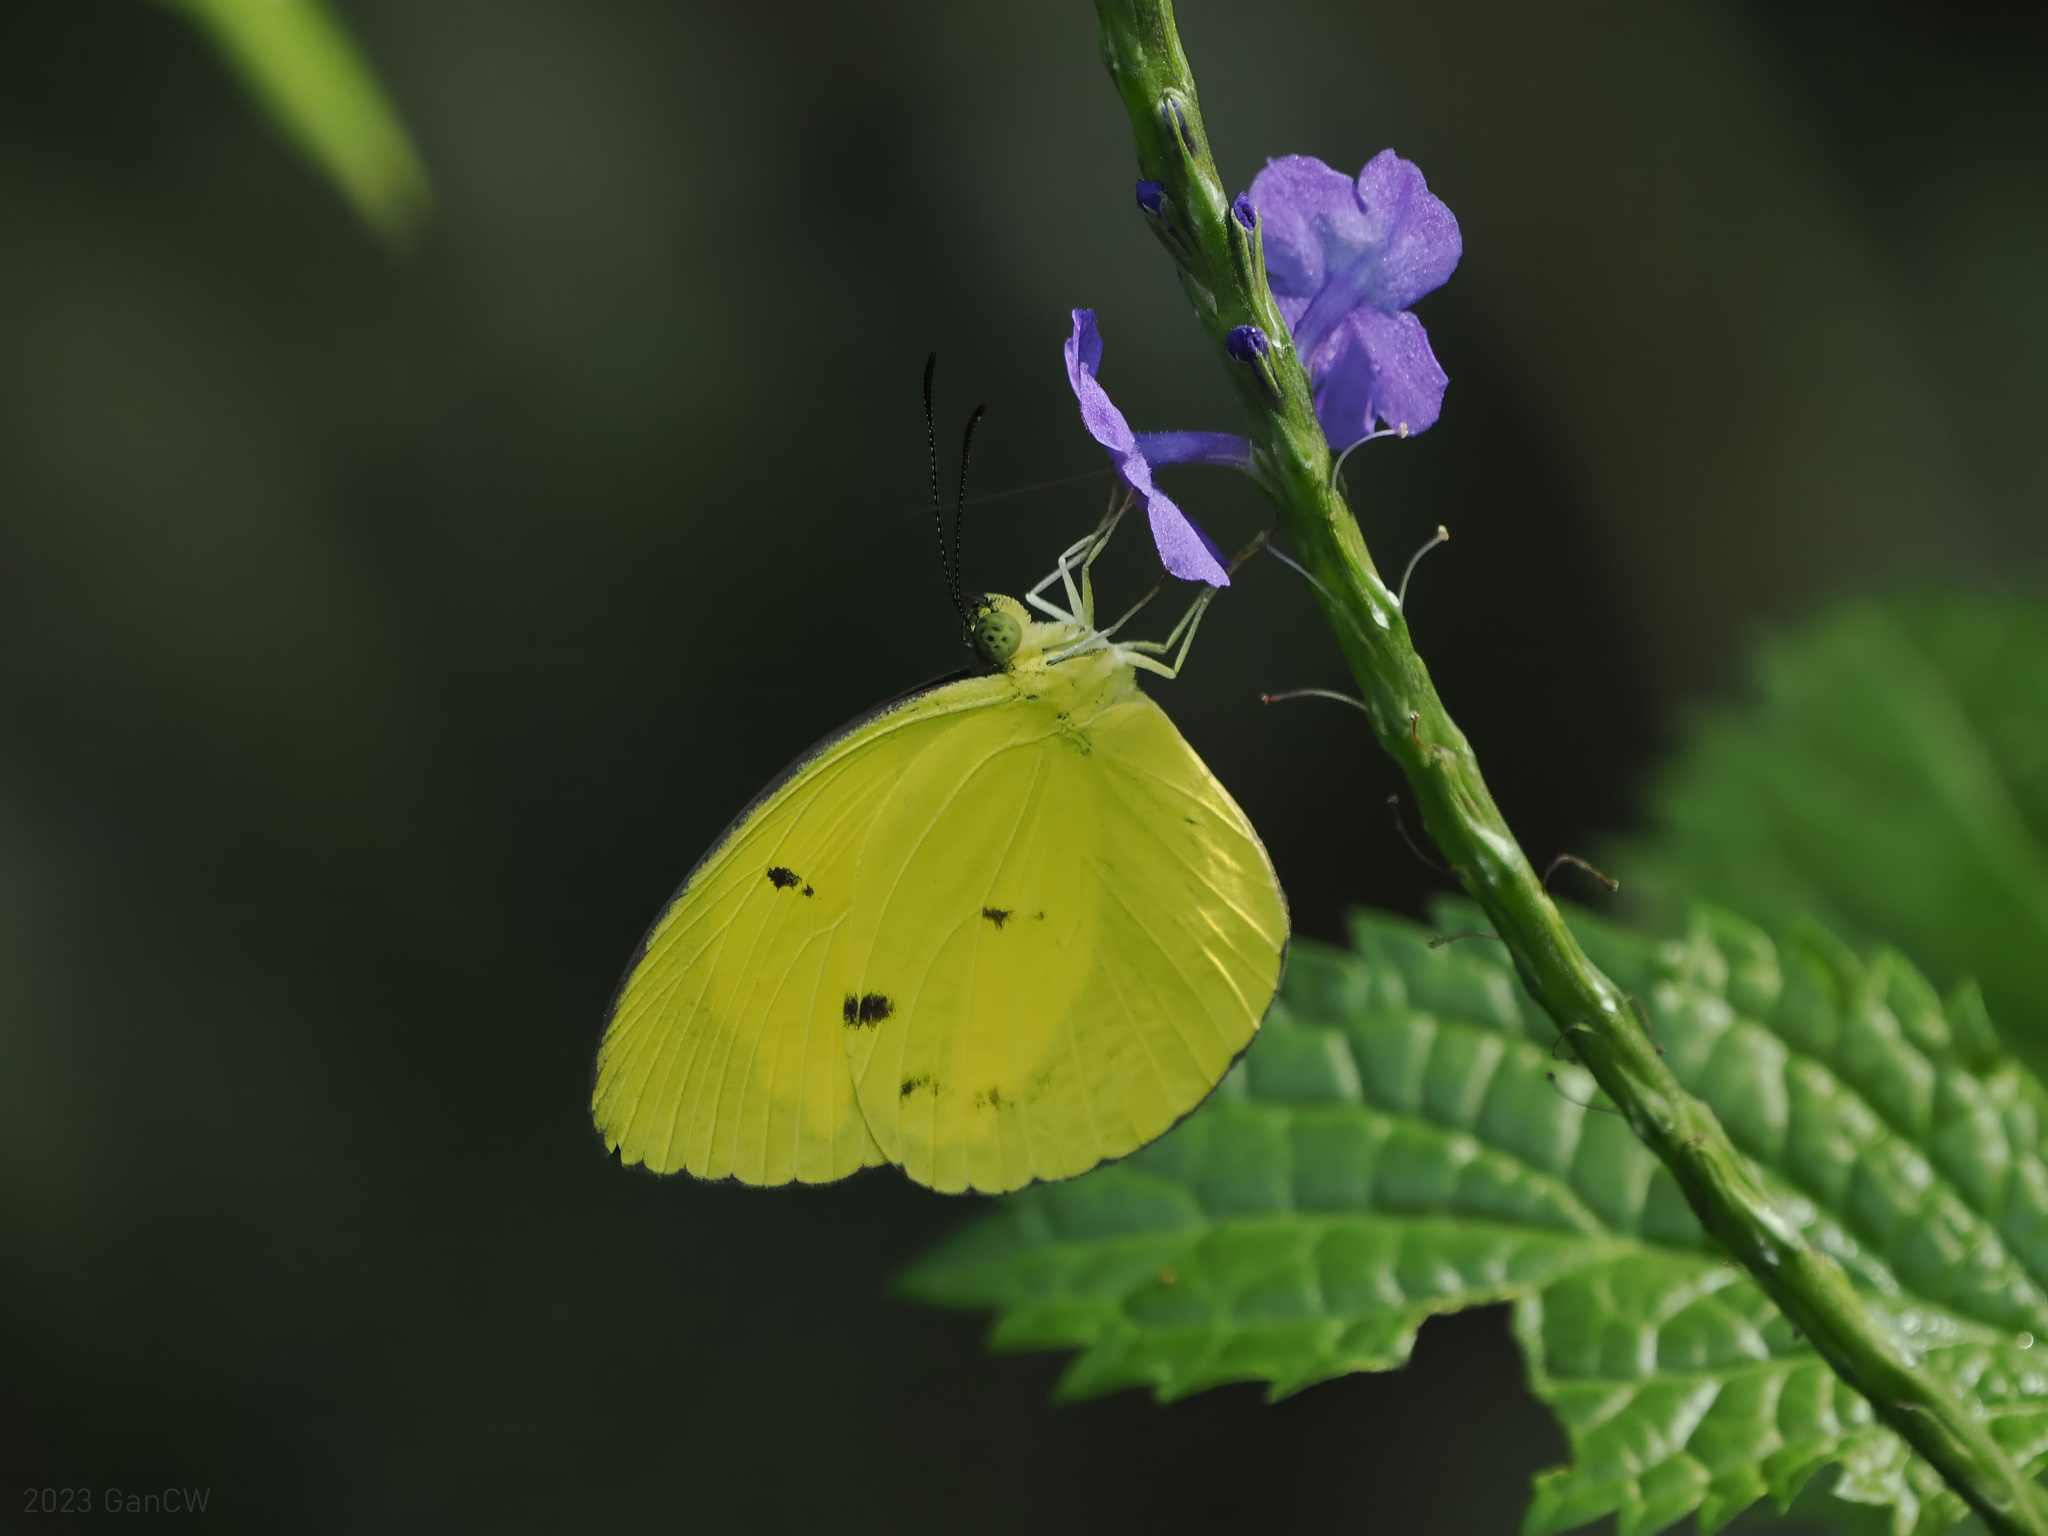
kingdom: Animalia
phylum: Arthropoda
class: Insecta
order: Lepidoptera
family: Pieridae
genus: Eurema
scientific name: Eurema tominia
